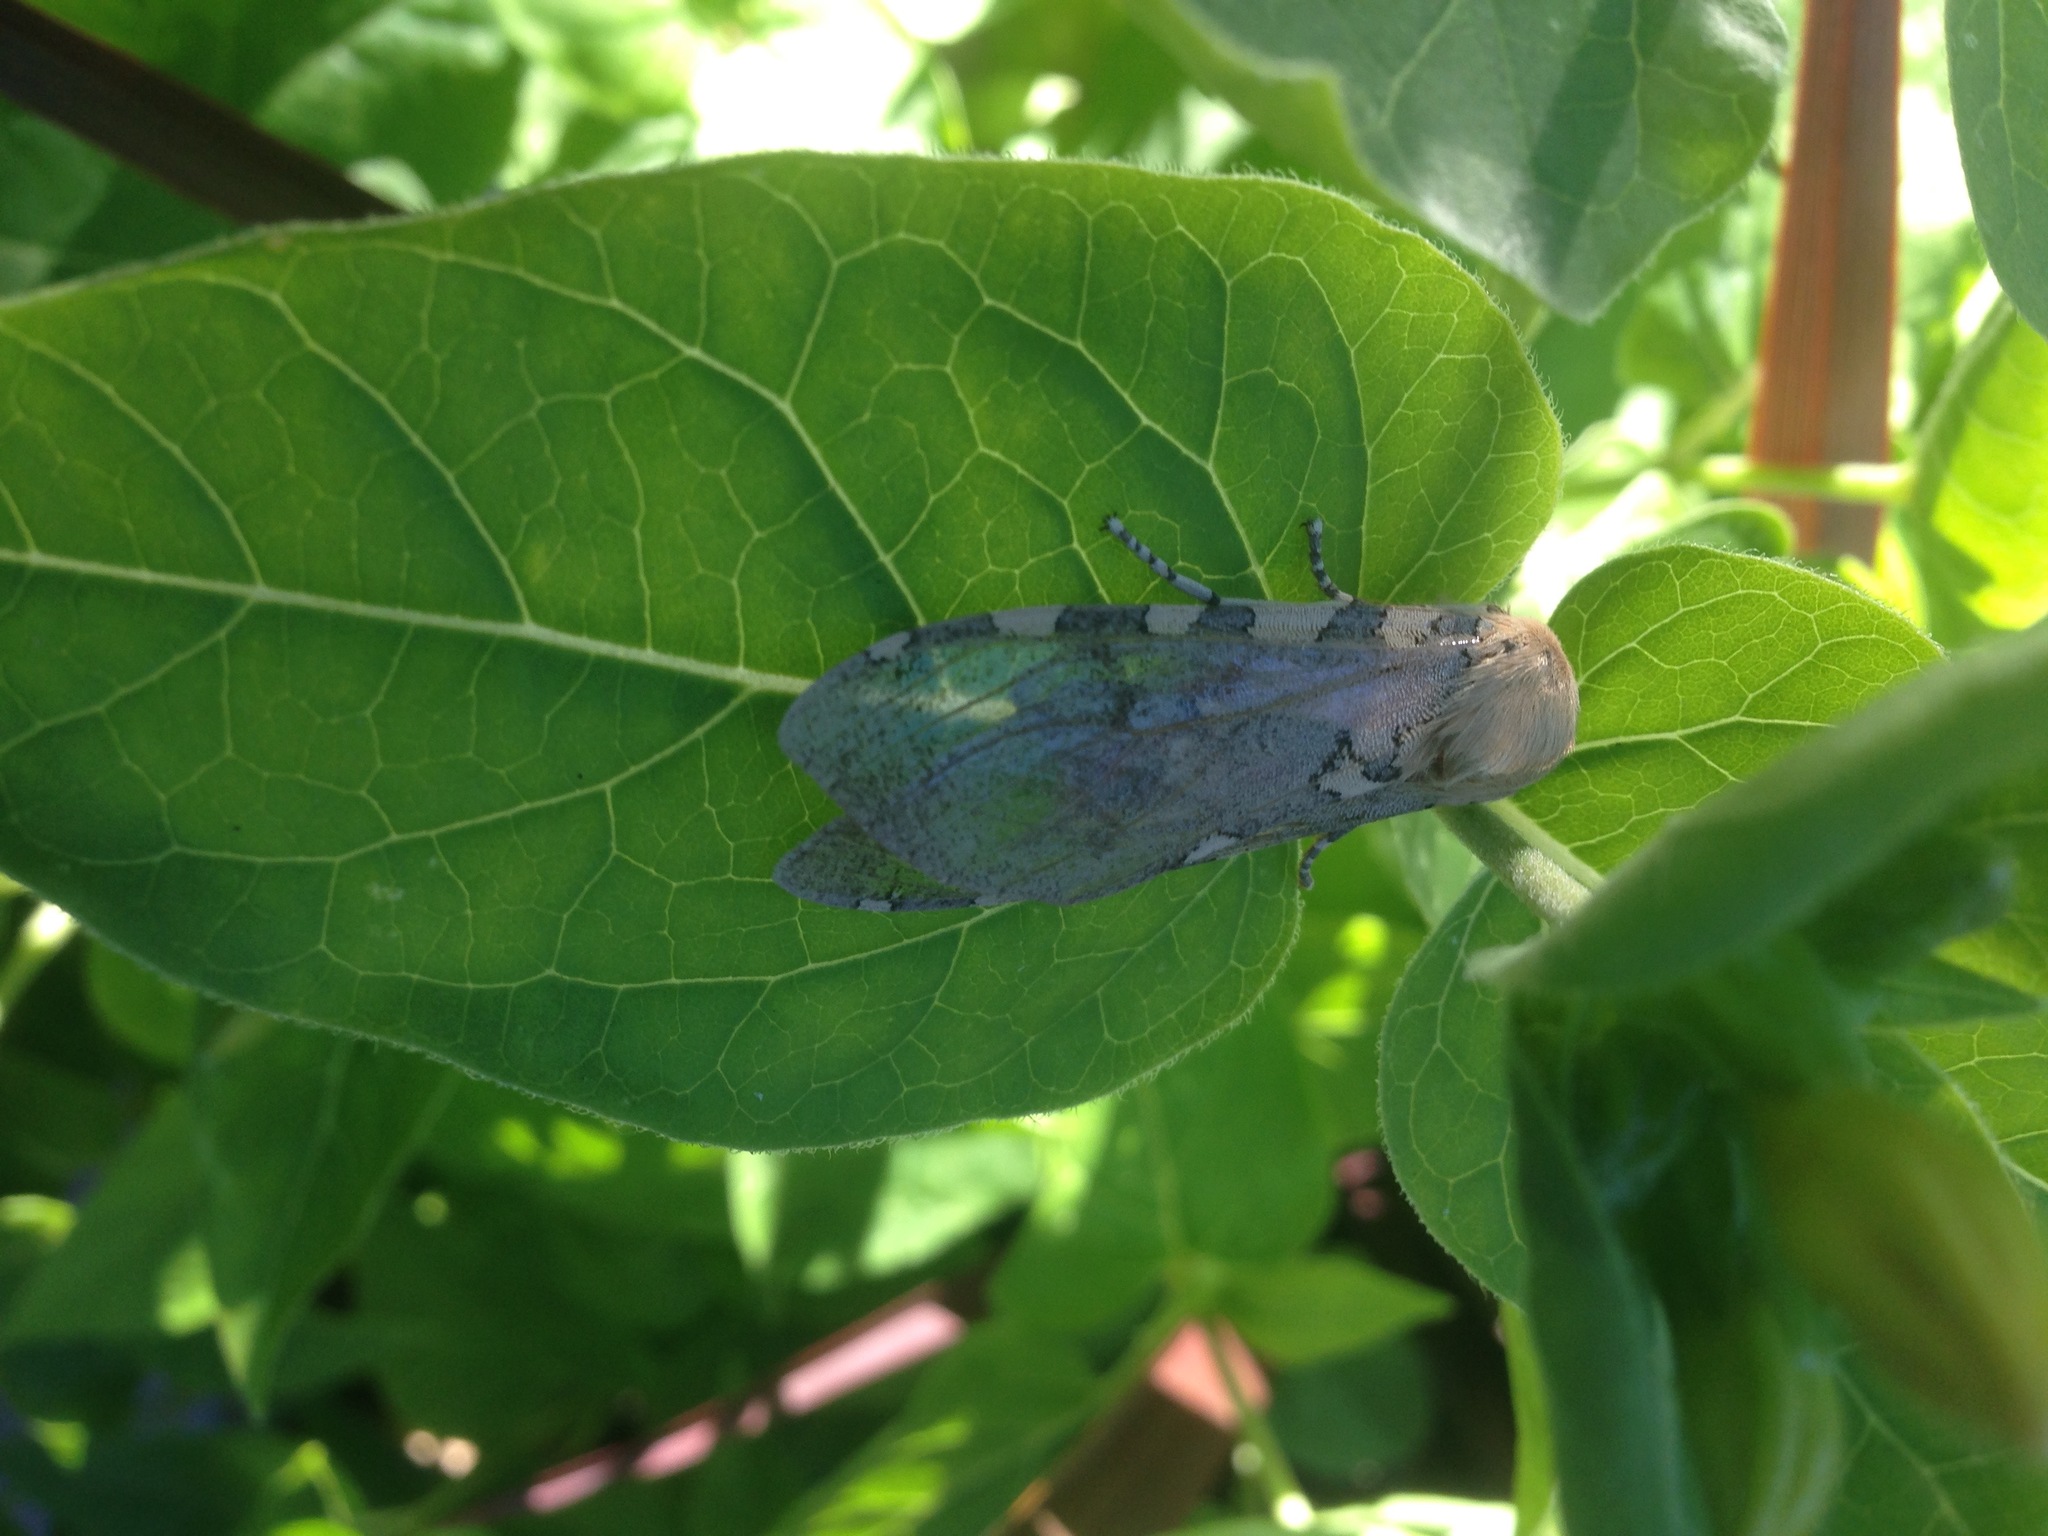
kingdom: Animalia
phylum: Arthropoda
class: Insecta
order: Lepidoptera
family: Erebidae
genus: Hemihyalea
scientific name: Hemihyalea edwardsii
